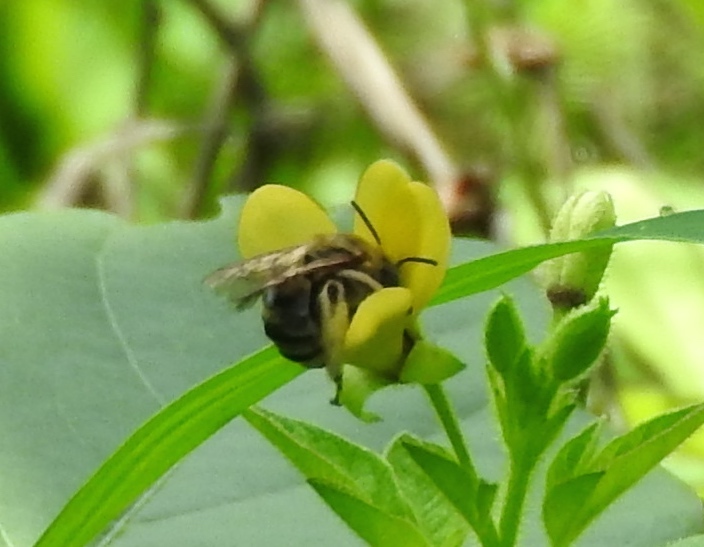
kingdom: Animalia
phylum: Arthropoda
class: Insecta
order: Hymenoptera
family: Apidae
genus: Apidae
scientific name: Apidae
